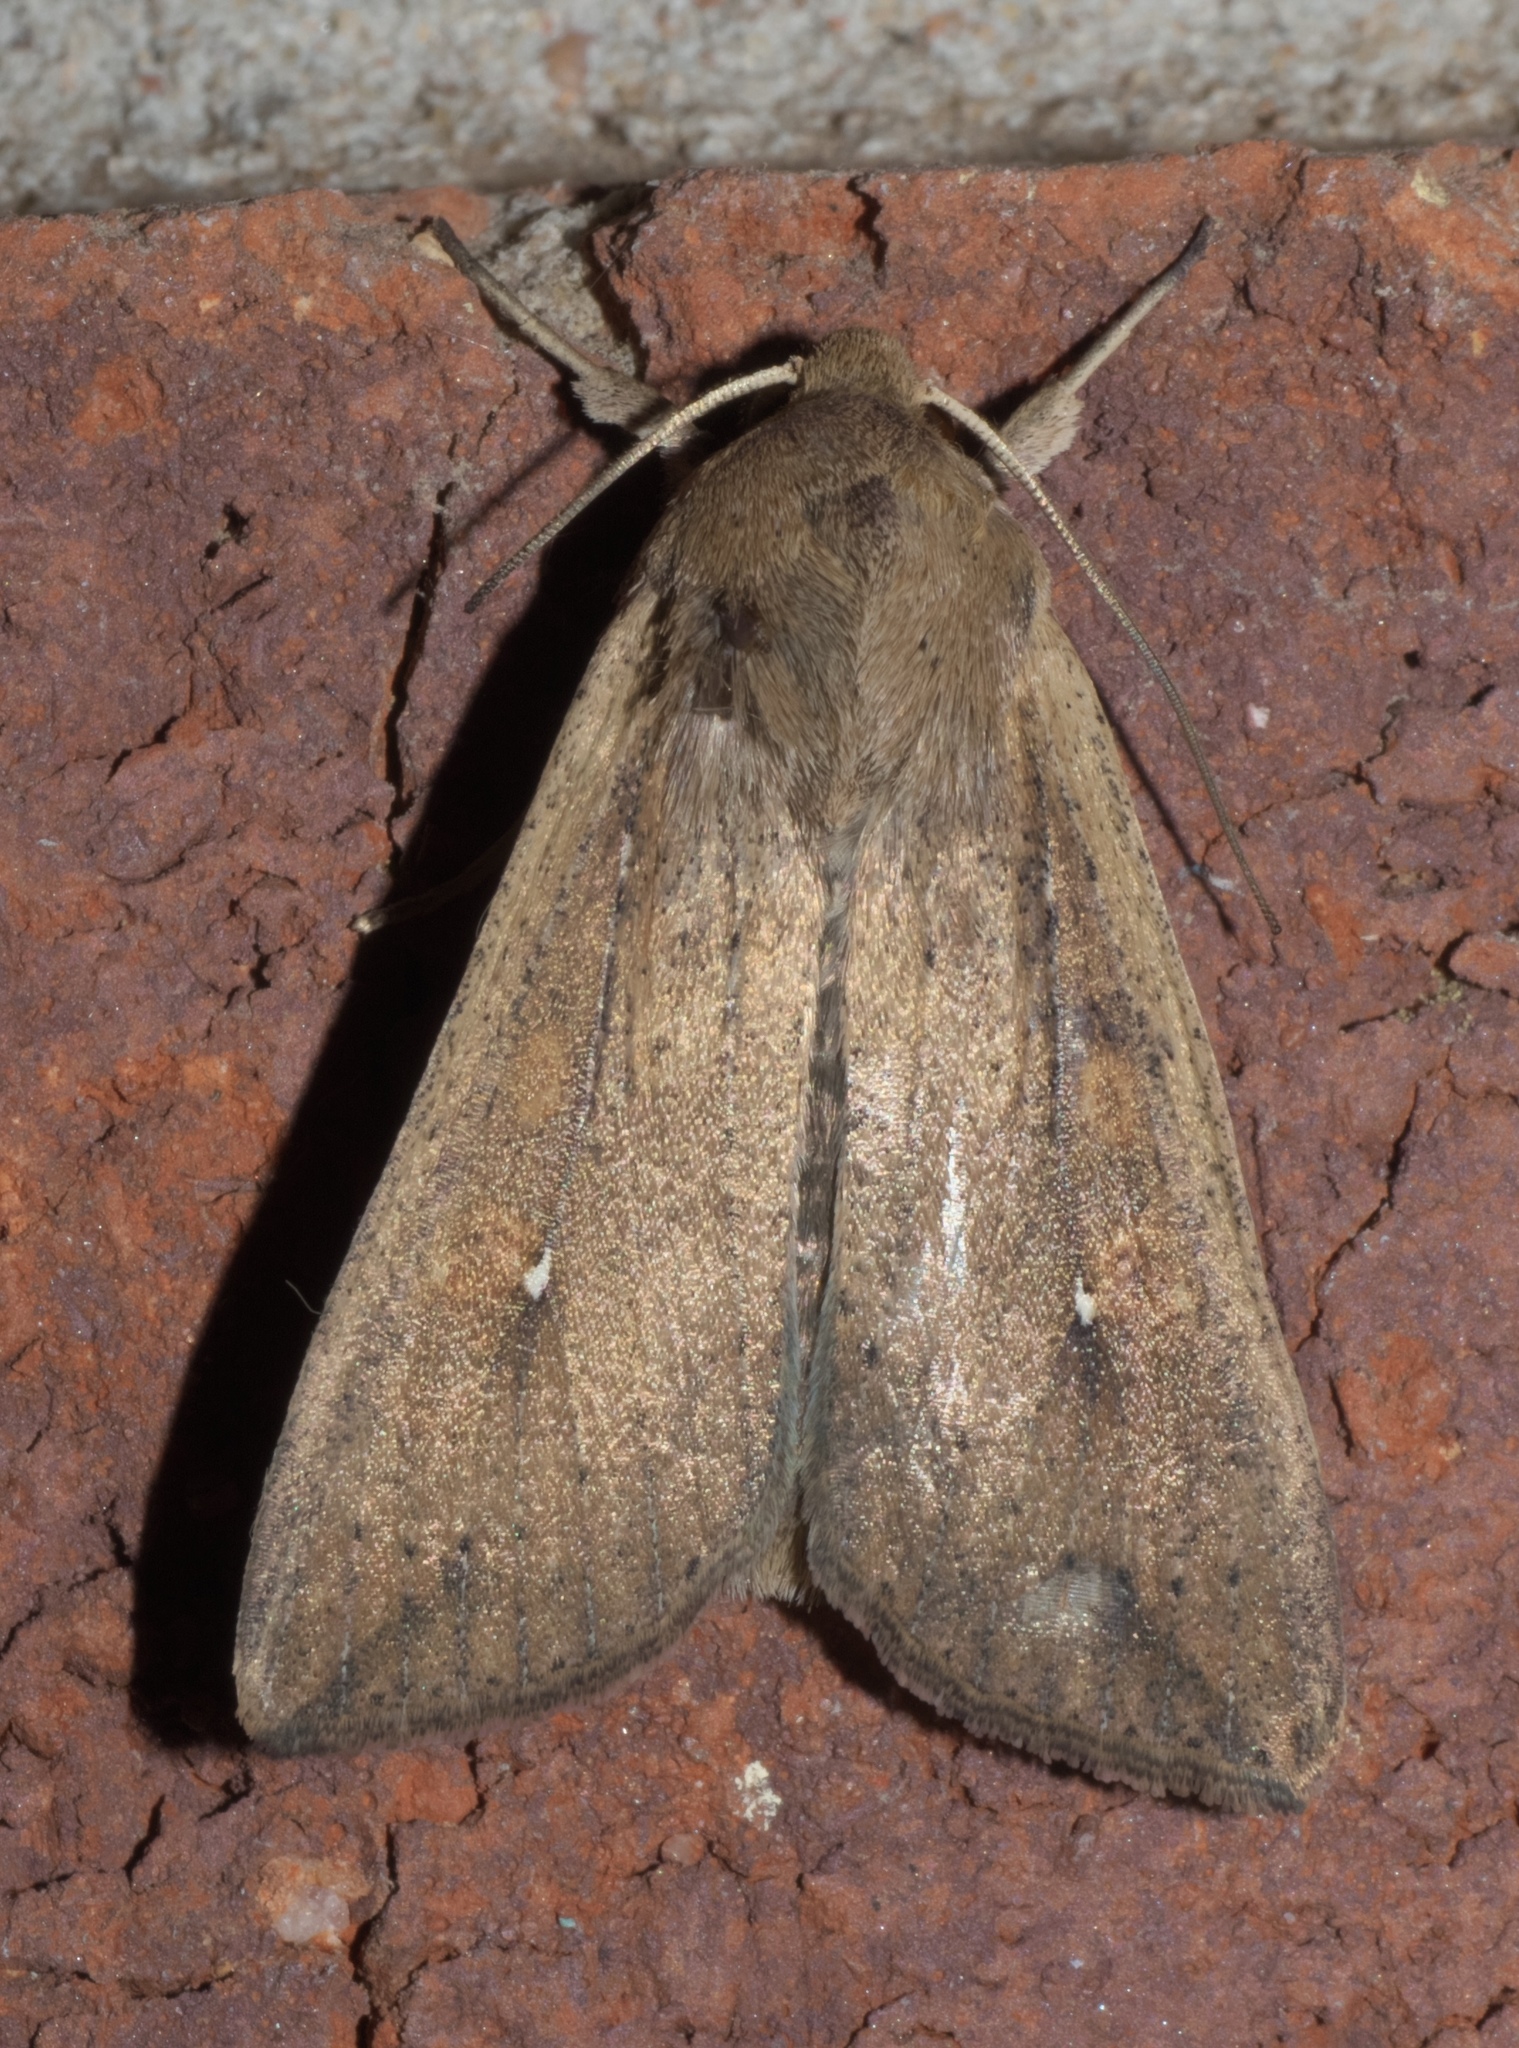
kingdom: Animalia
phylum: Arthropoda
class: Insecta
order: Lepidoptera
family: Noctuidae
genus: Mythimna
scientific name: Mythimna unipuncta
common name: White-speck
